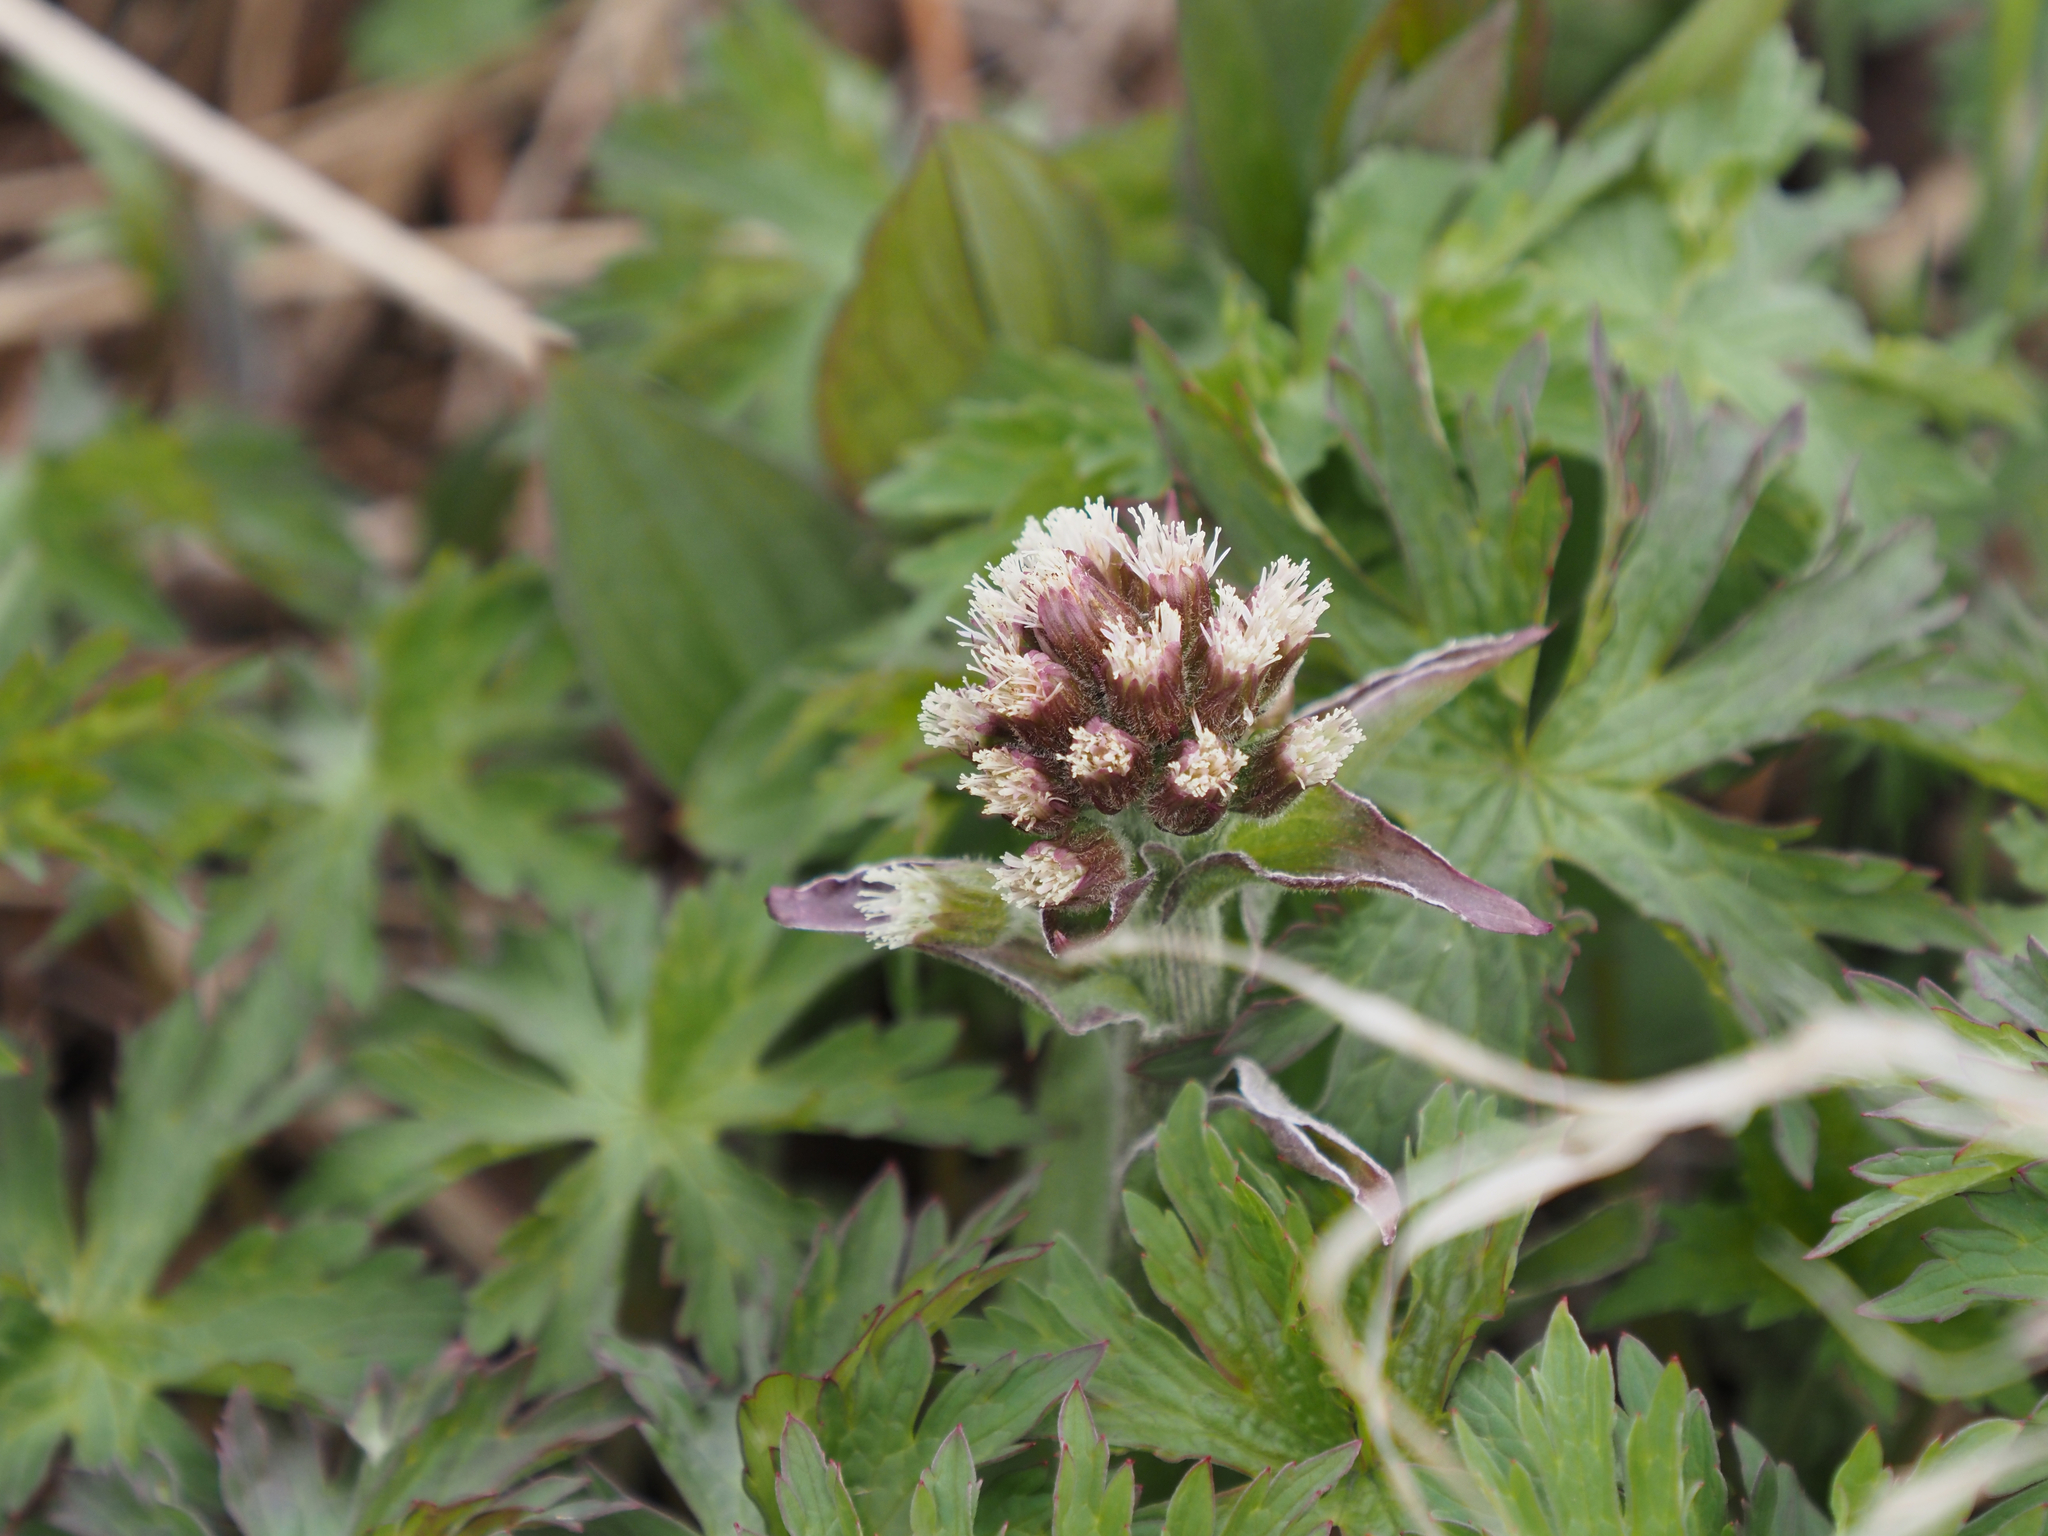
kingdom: Plantae
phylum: Tracheophyta
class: Magnoliopsida
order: Asterales
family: Asteraceae
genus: Petasites
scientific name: Petasites frigidus
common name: Arctic butterbur
